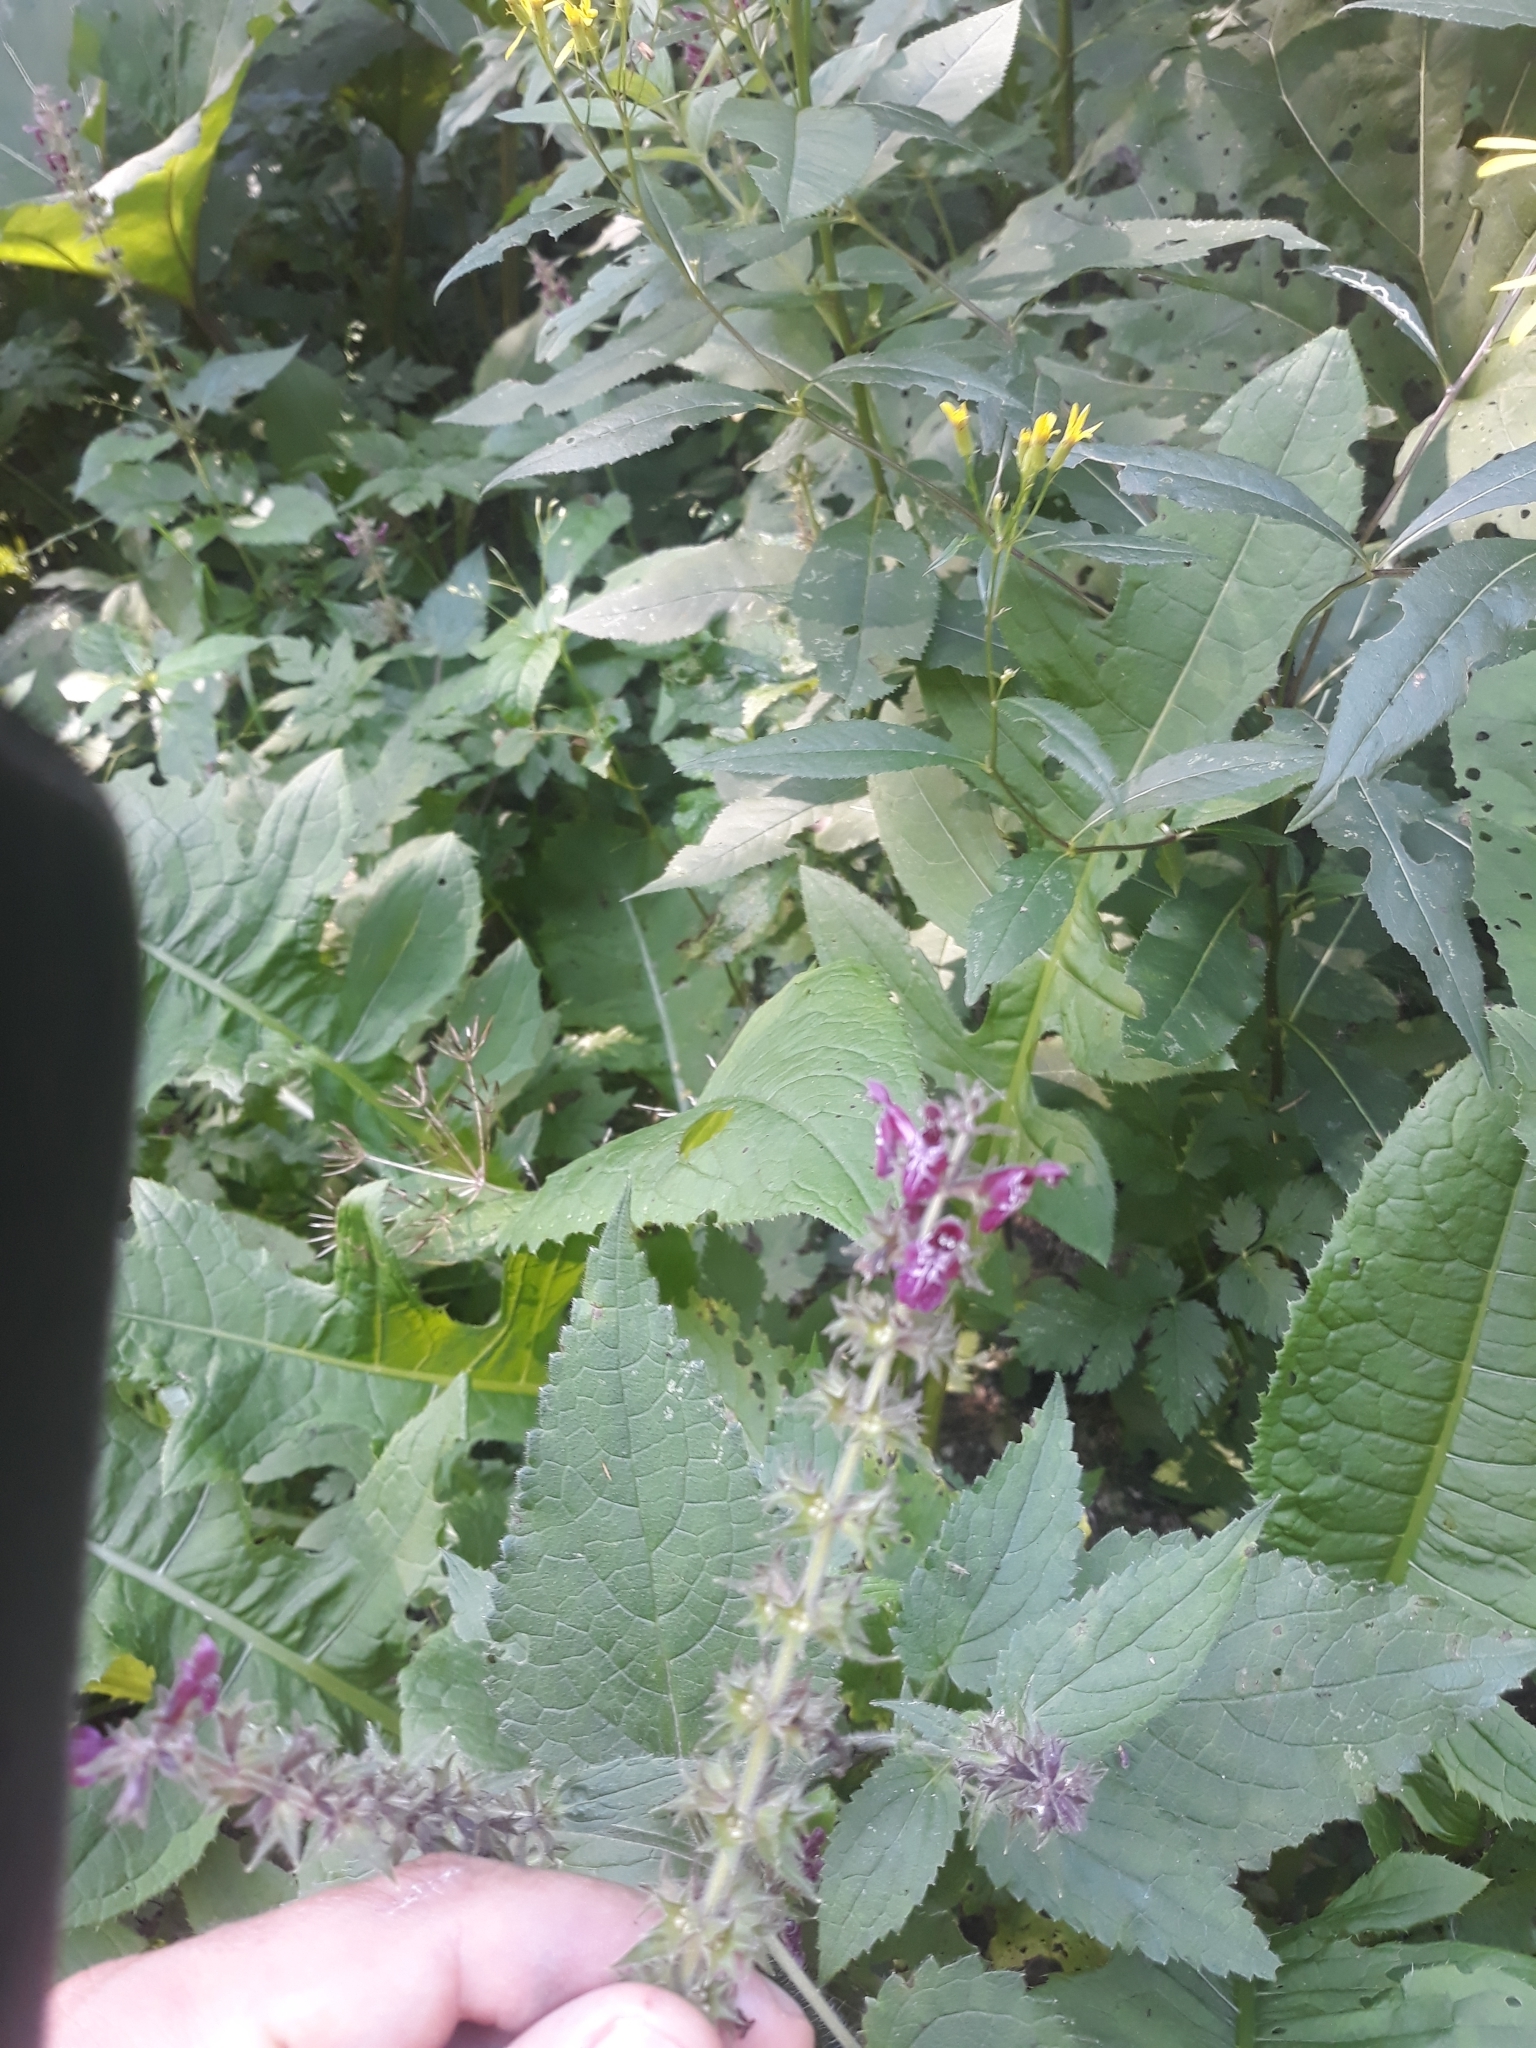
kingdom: Plantae
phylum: Tracheophyta
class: Magnoliopsida
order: Lamiales
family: Lamiaceae
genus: Stachys
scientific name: Stachys sylvatica
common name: Hedge woundwort
